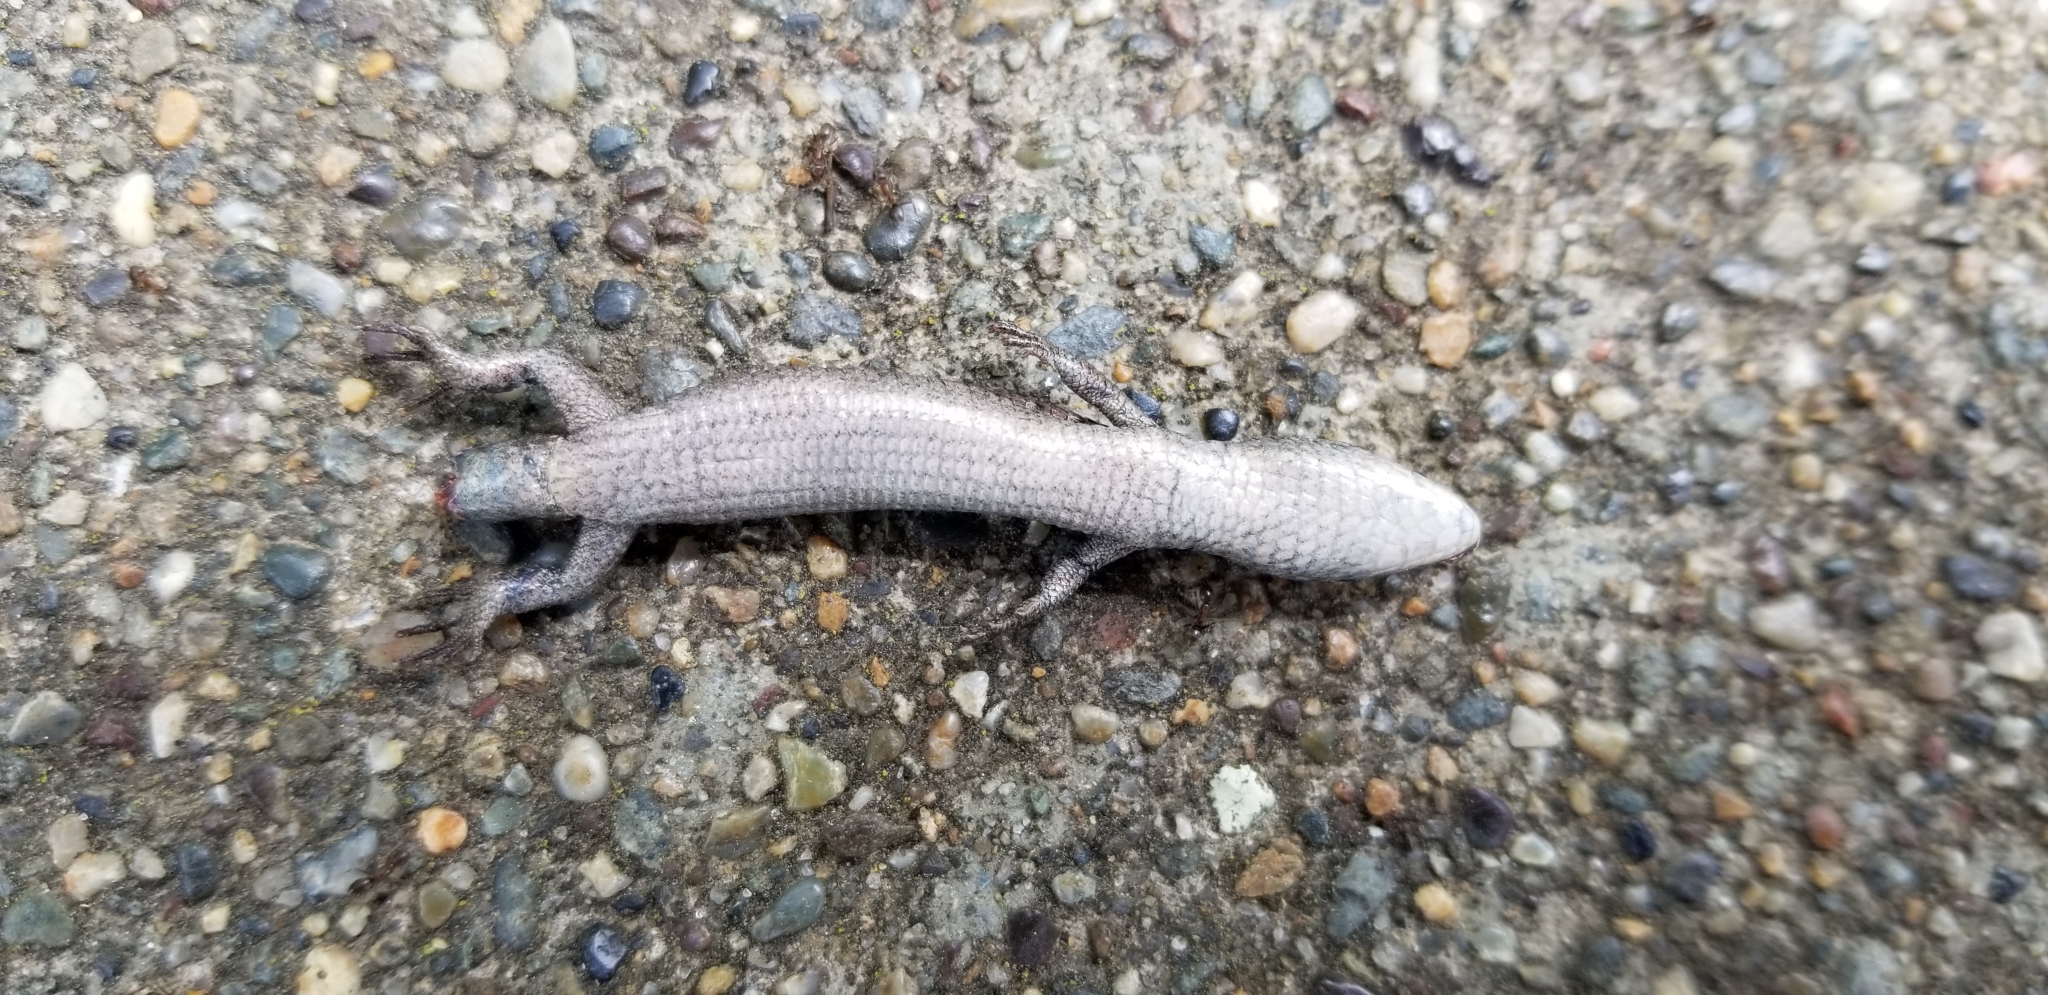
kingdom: Animalia
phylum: Chordata
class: Squamata
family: Anguidae
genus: Elgaria
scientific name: Elgaria coerulea
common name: Northern alligator lizard
